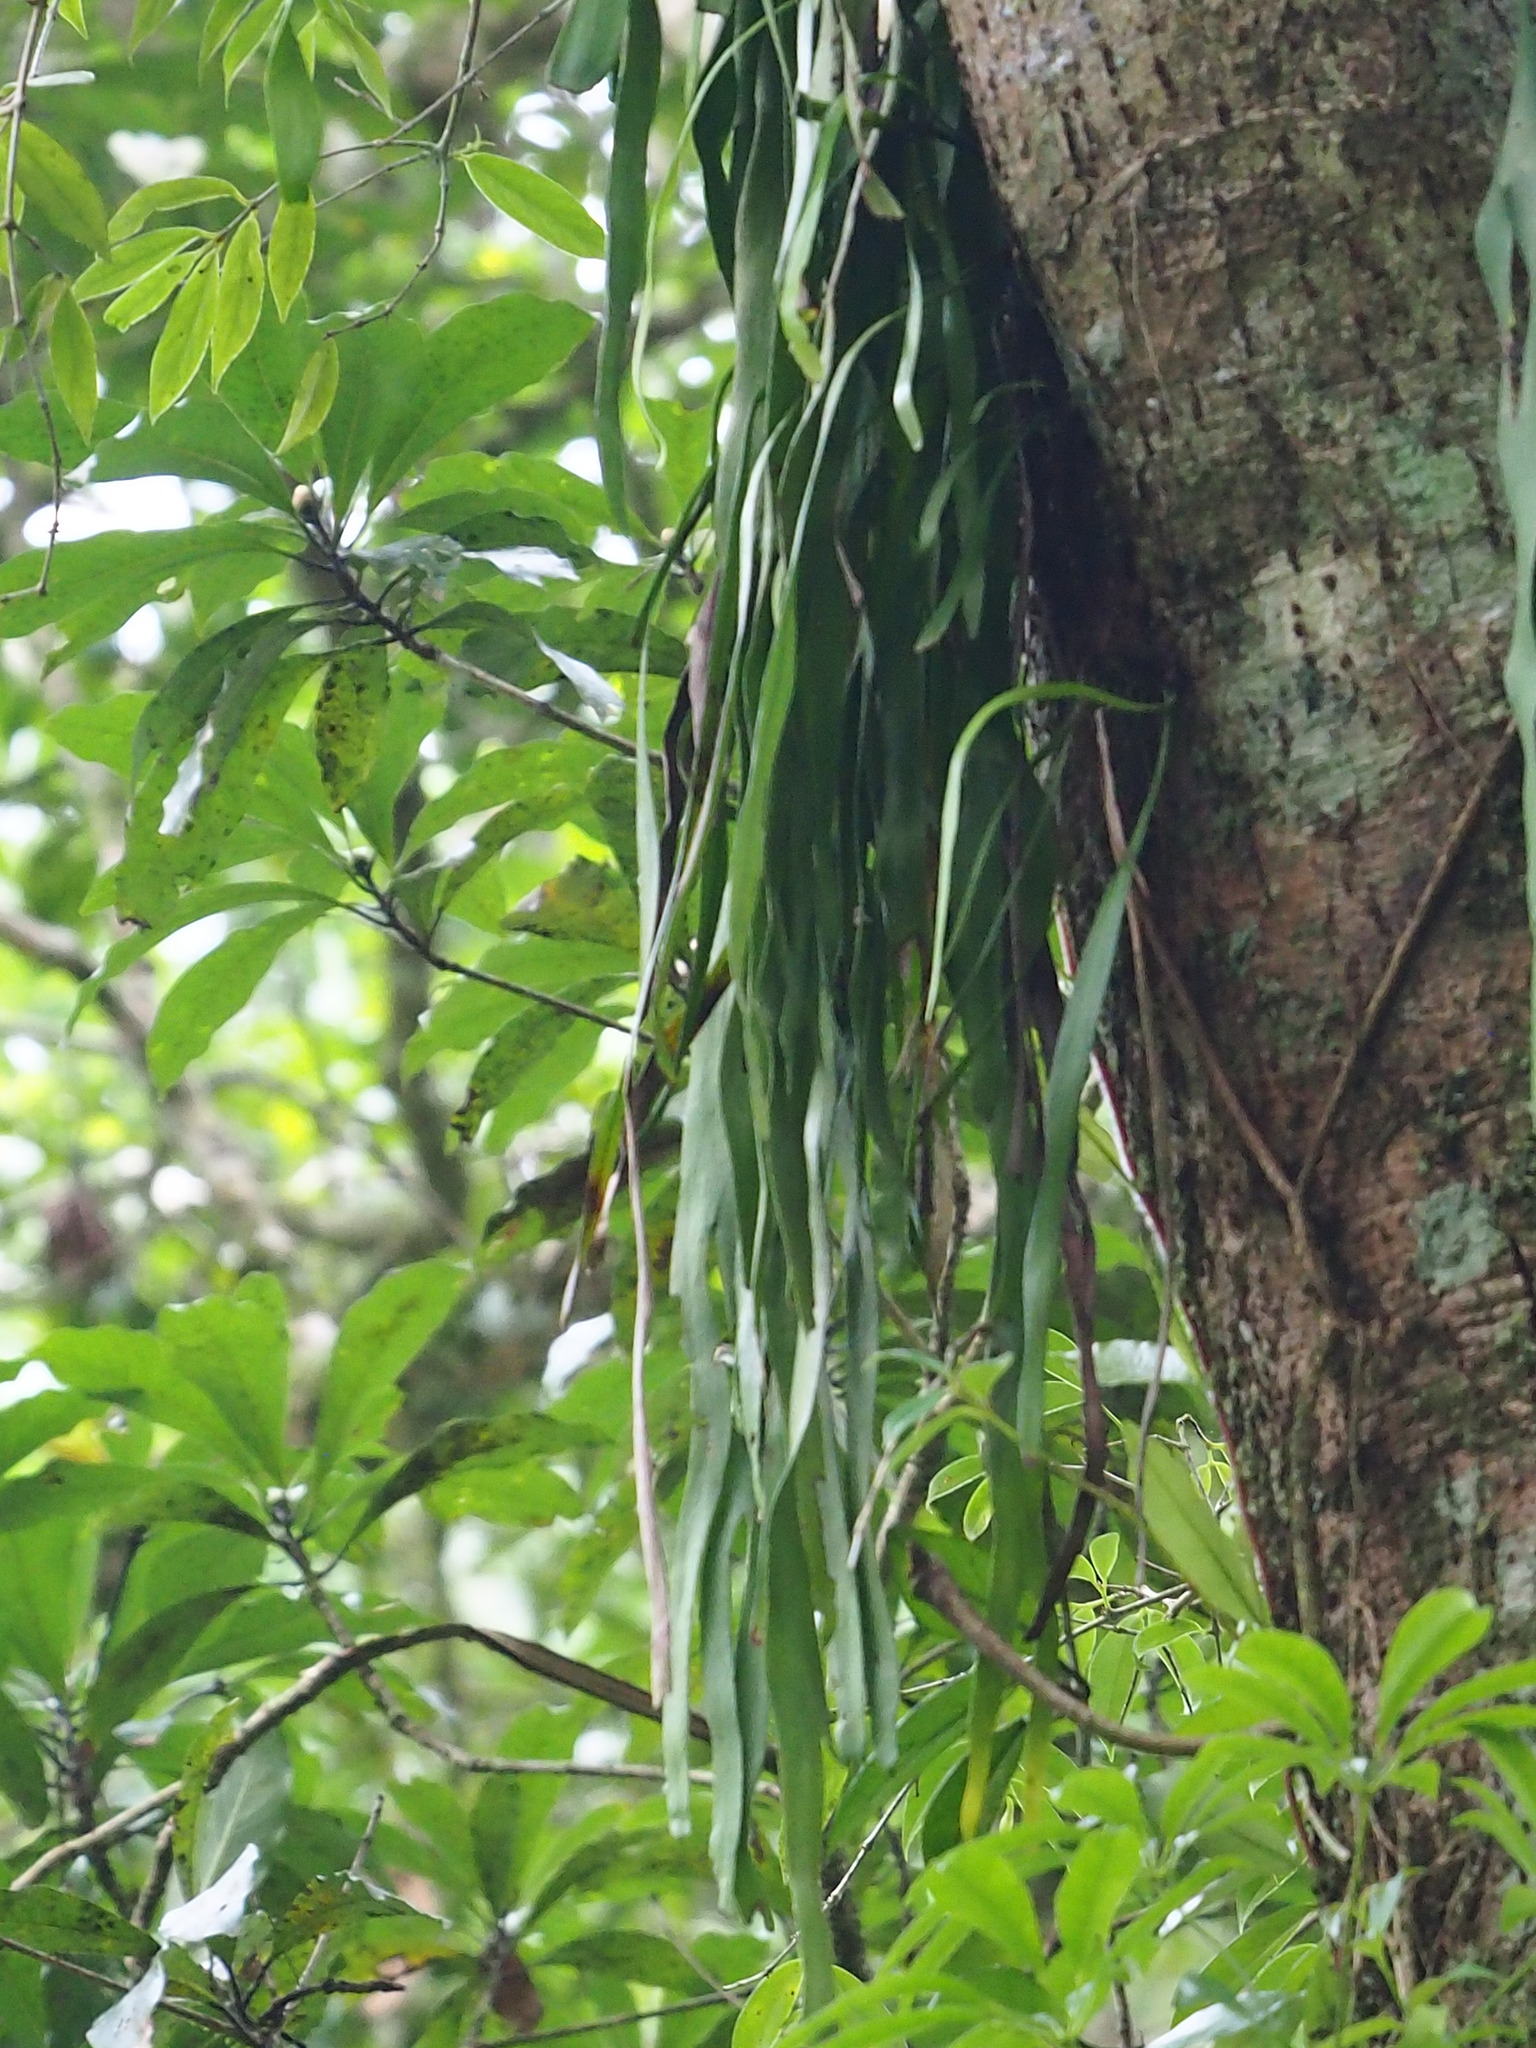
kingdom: Plantae
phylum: Tracheophyta
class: Polypodiopsida
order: Ophioglossales
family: Ophioglossaceae
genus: Ophioderma
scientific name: Ophioderma pendulum
